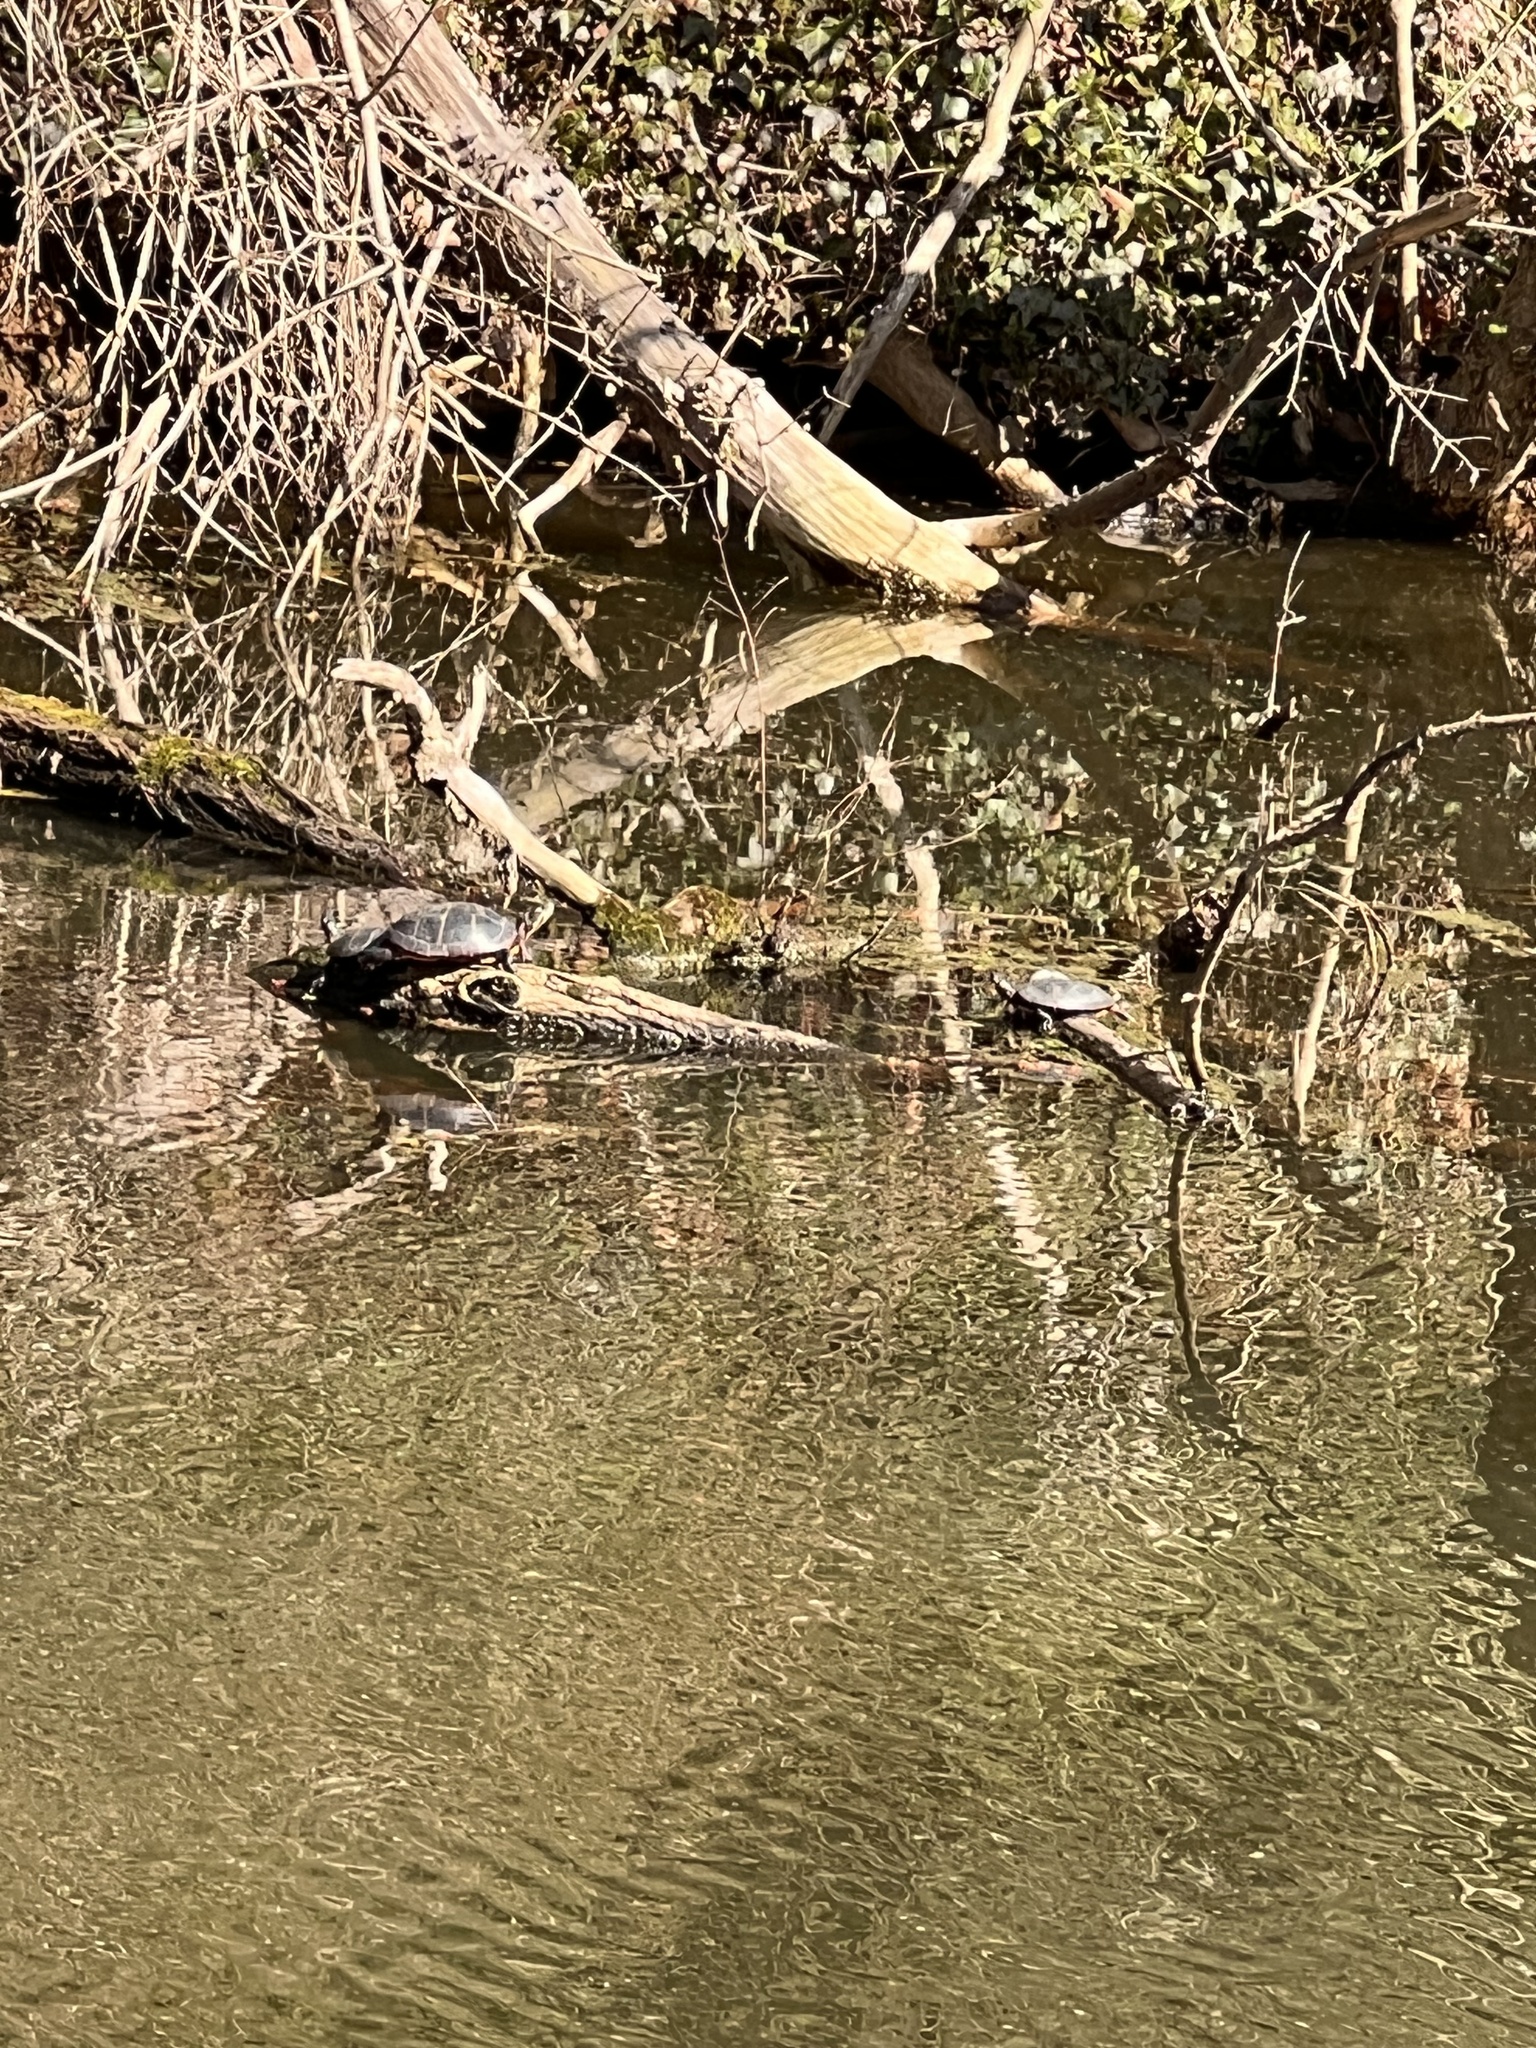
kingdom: Animalia
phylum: Chordata
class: Testudines
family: Emydidae
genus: Chrysemys
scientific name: Chrysemys picta
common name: Painted turtle
